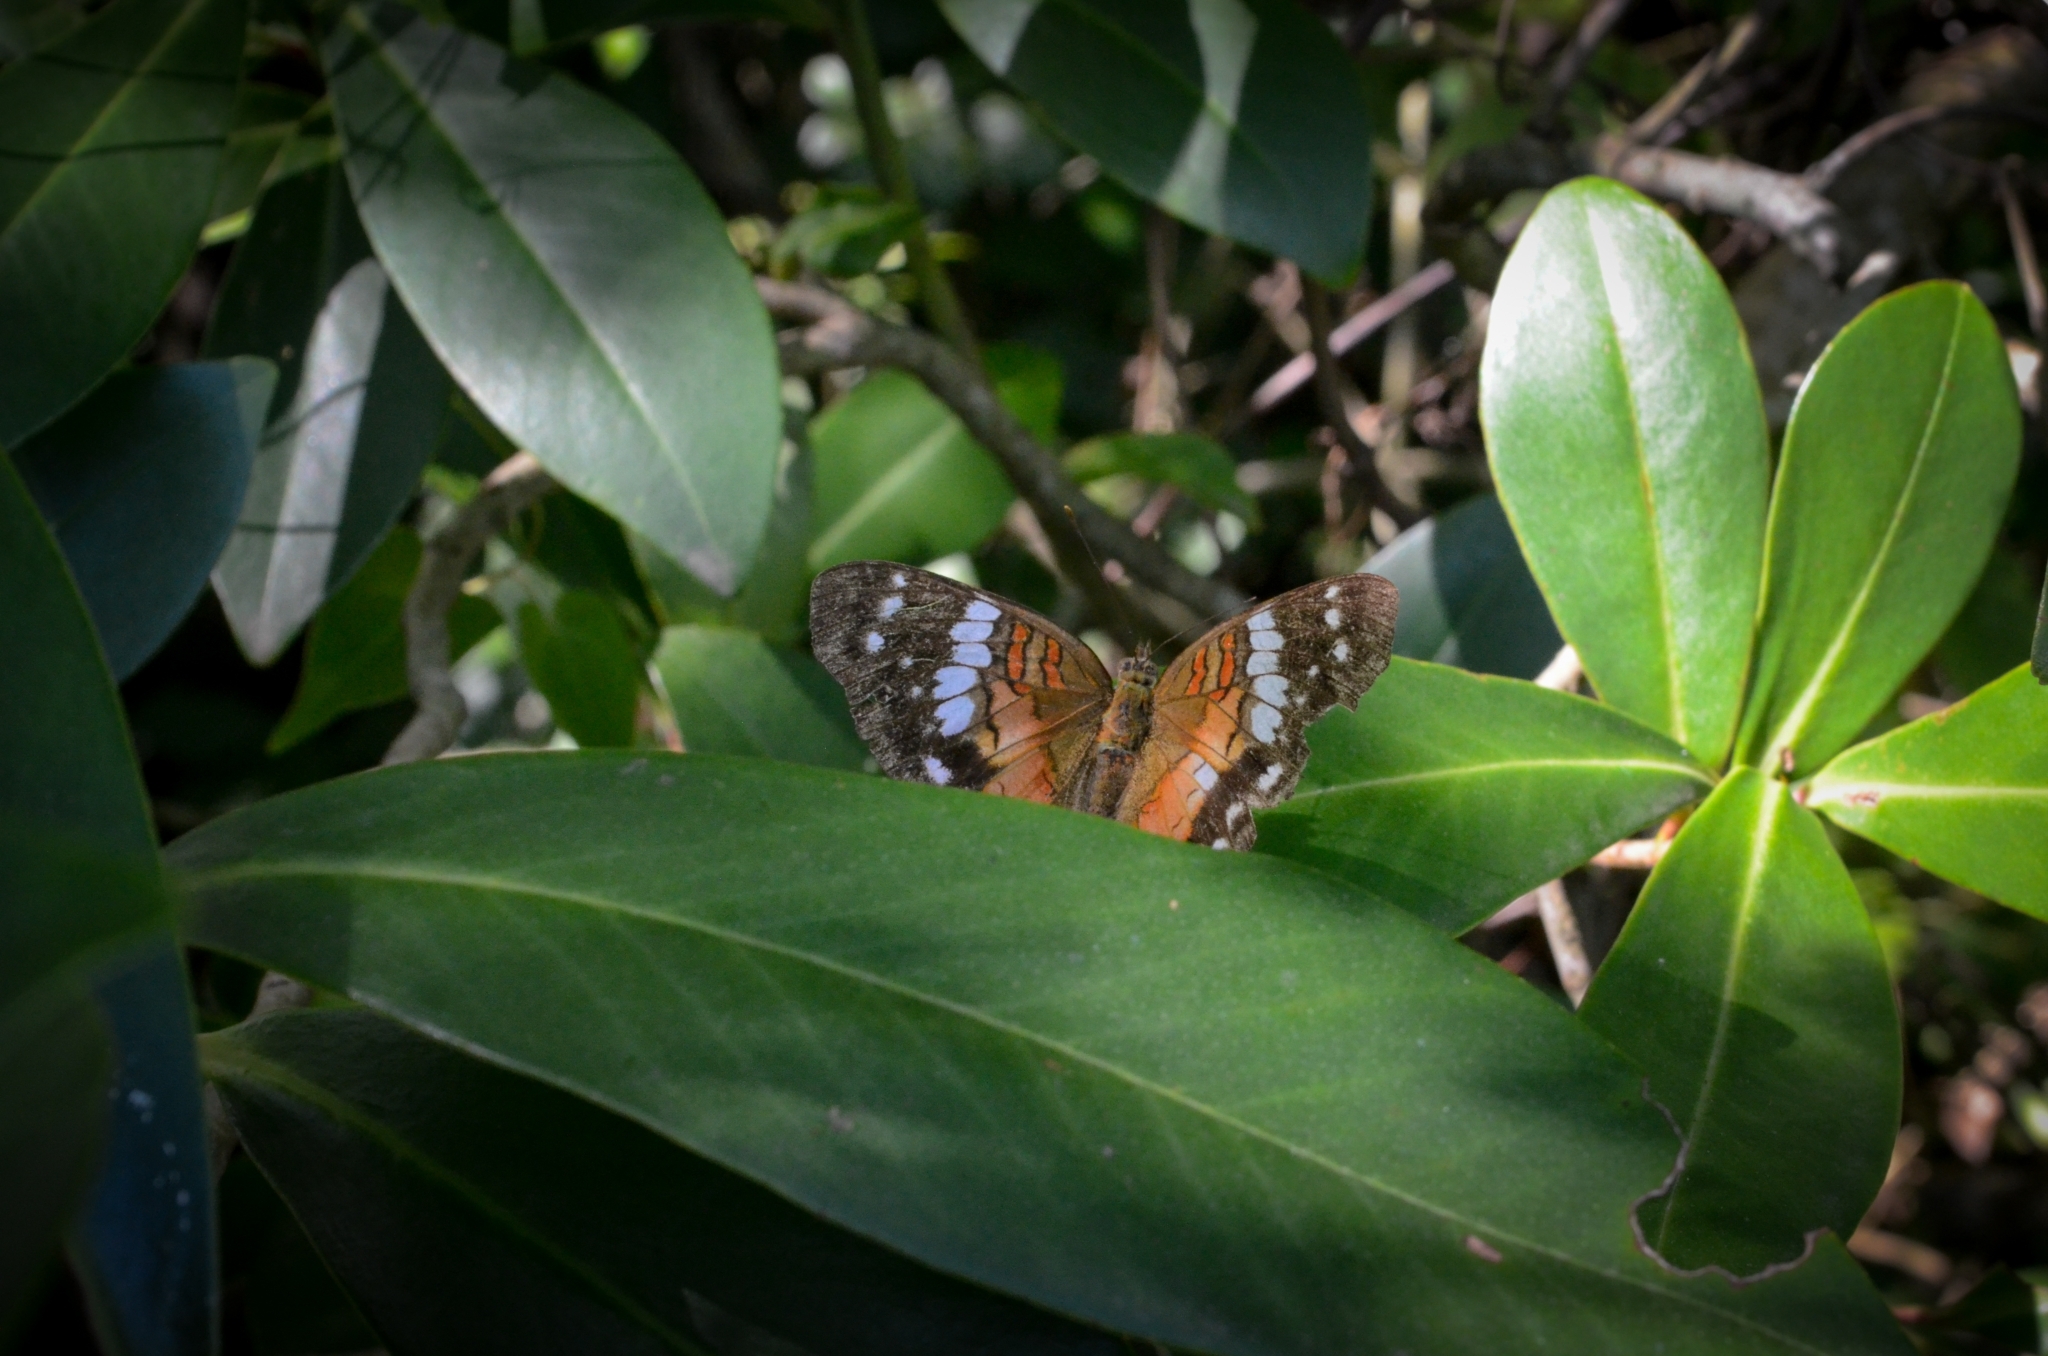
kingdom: Animalia
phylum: Arthropoda
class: Insecta
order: Lepidoptera
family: Nymphalidae
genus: Anartia
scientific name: Anartia amathea
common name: Red peacock
